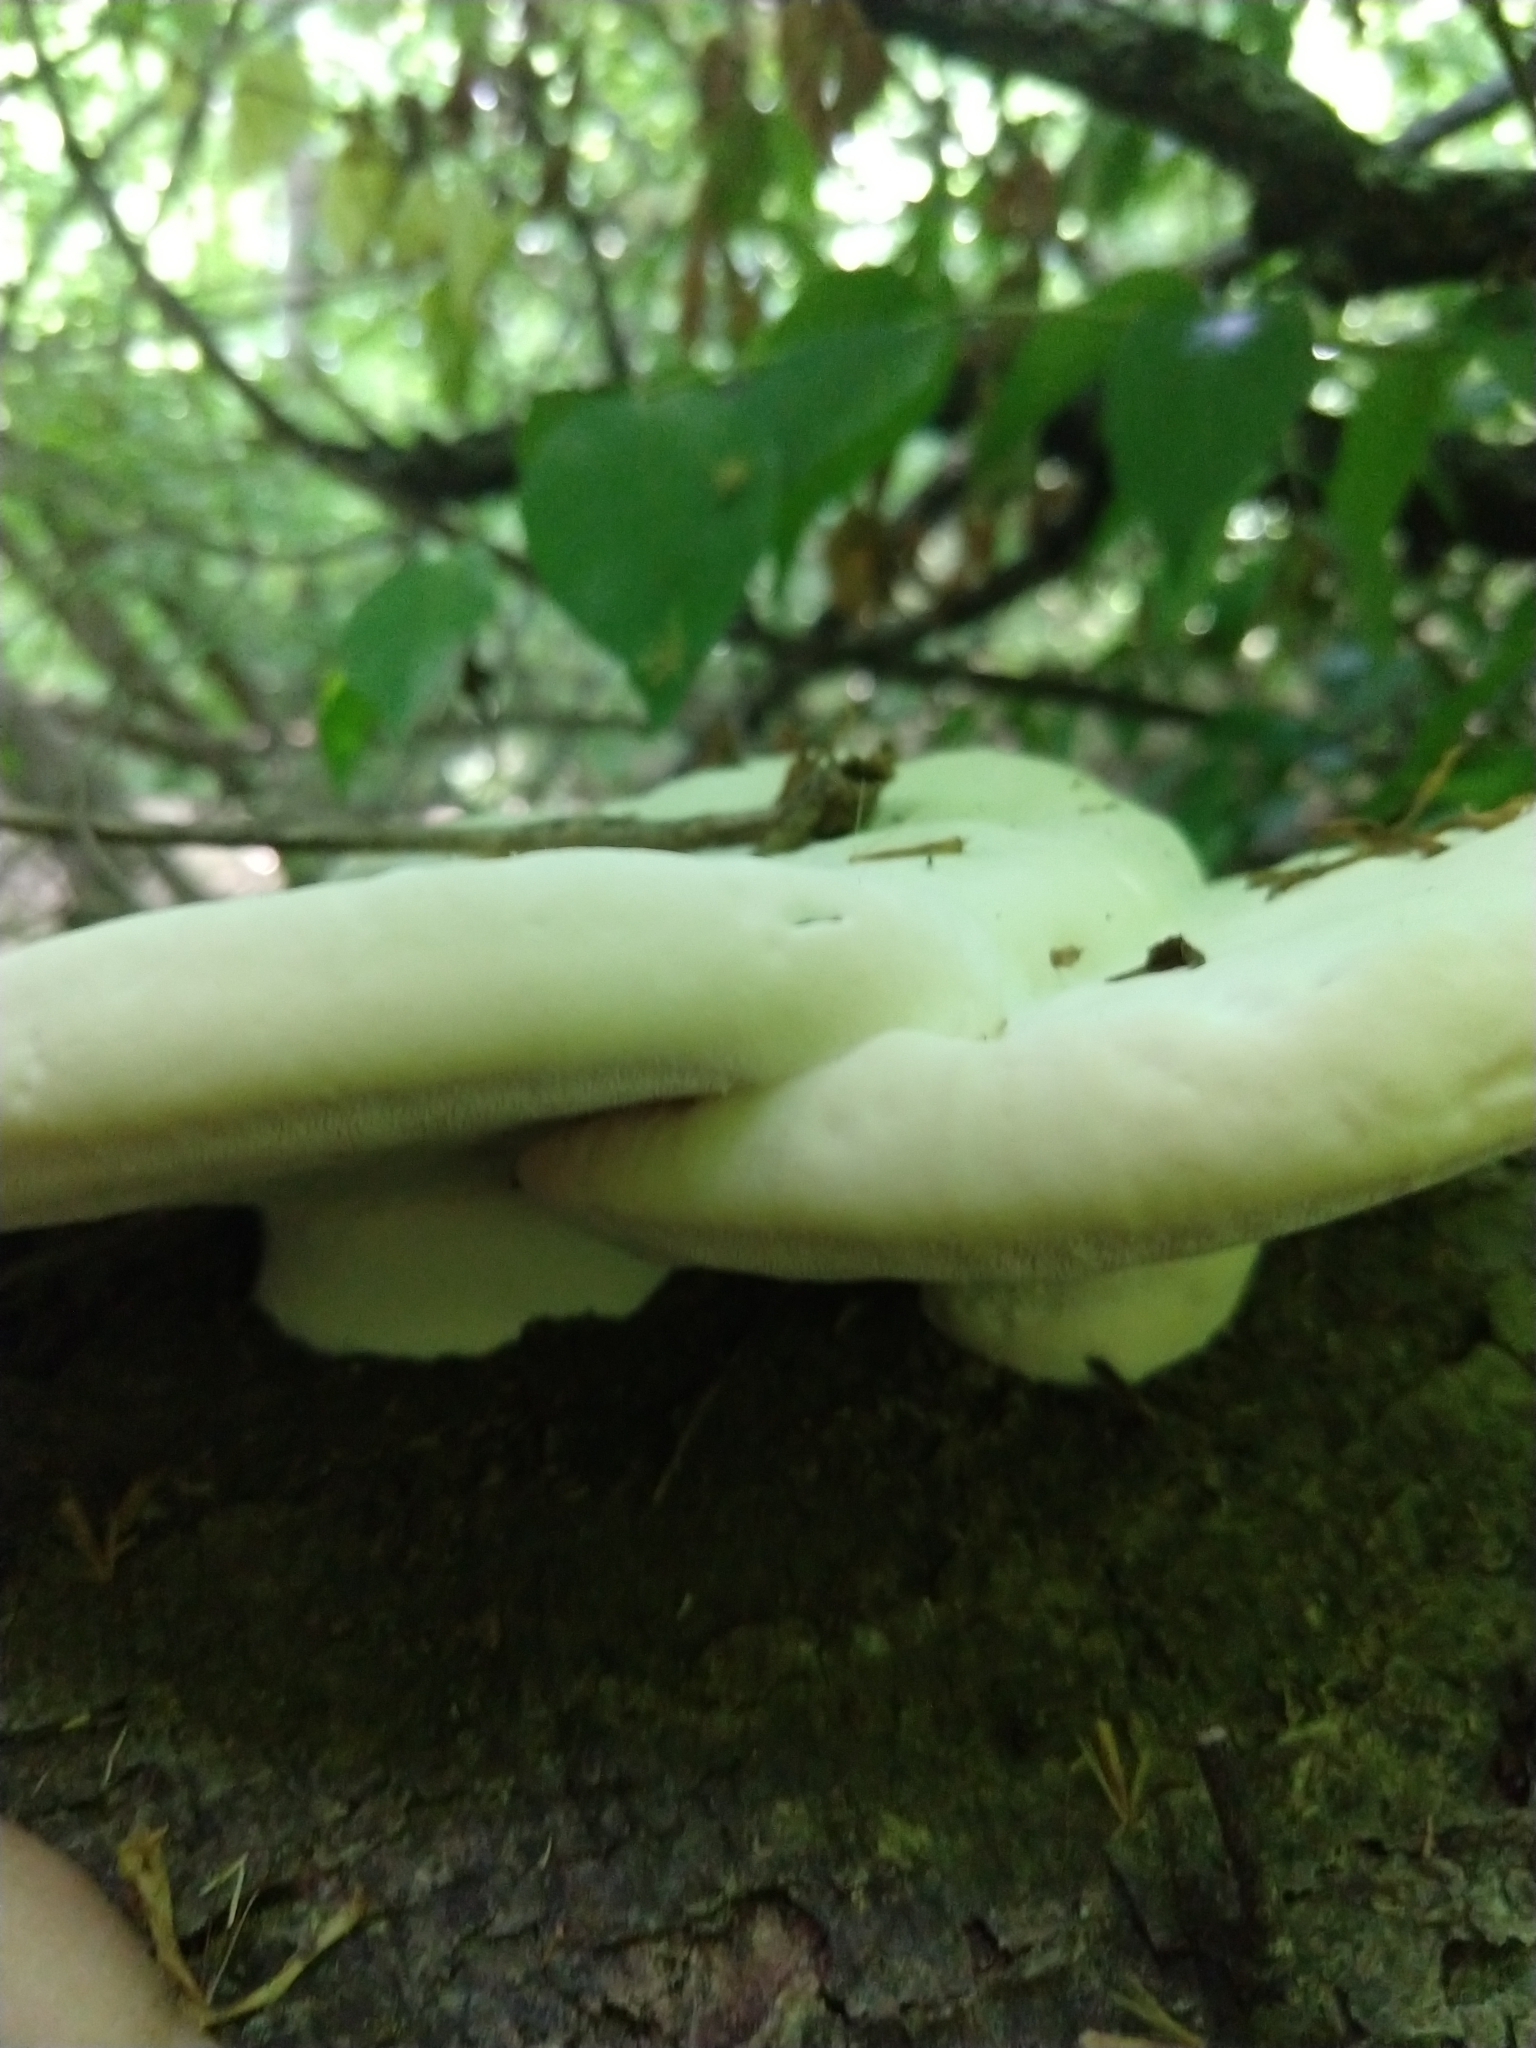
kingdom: Fungi
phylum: Basidiomycota
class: Agaricomycetes
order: Polyporales
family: Polyporaceae
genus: Ganoderma
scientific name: Ganoderma applanatum
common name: Artist's bracket
